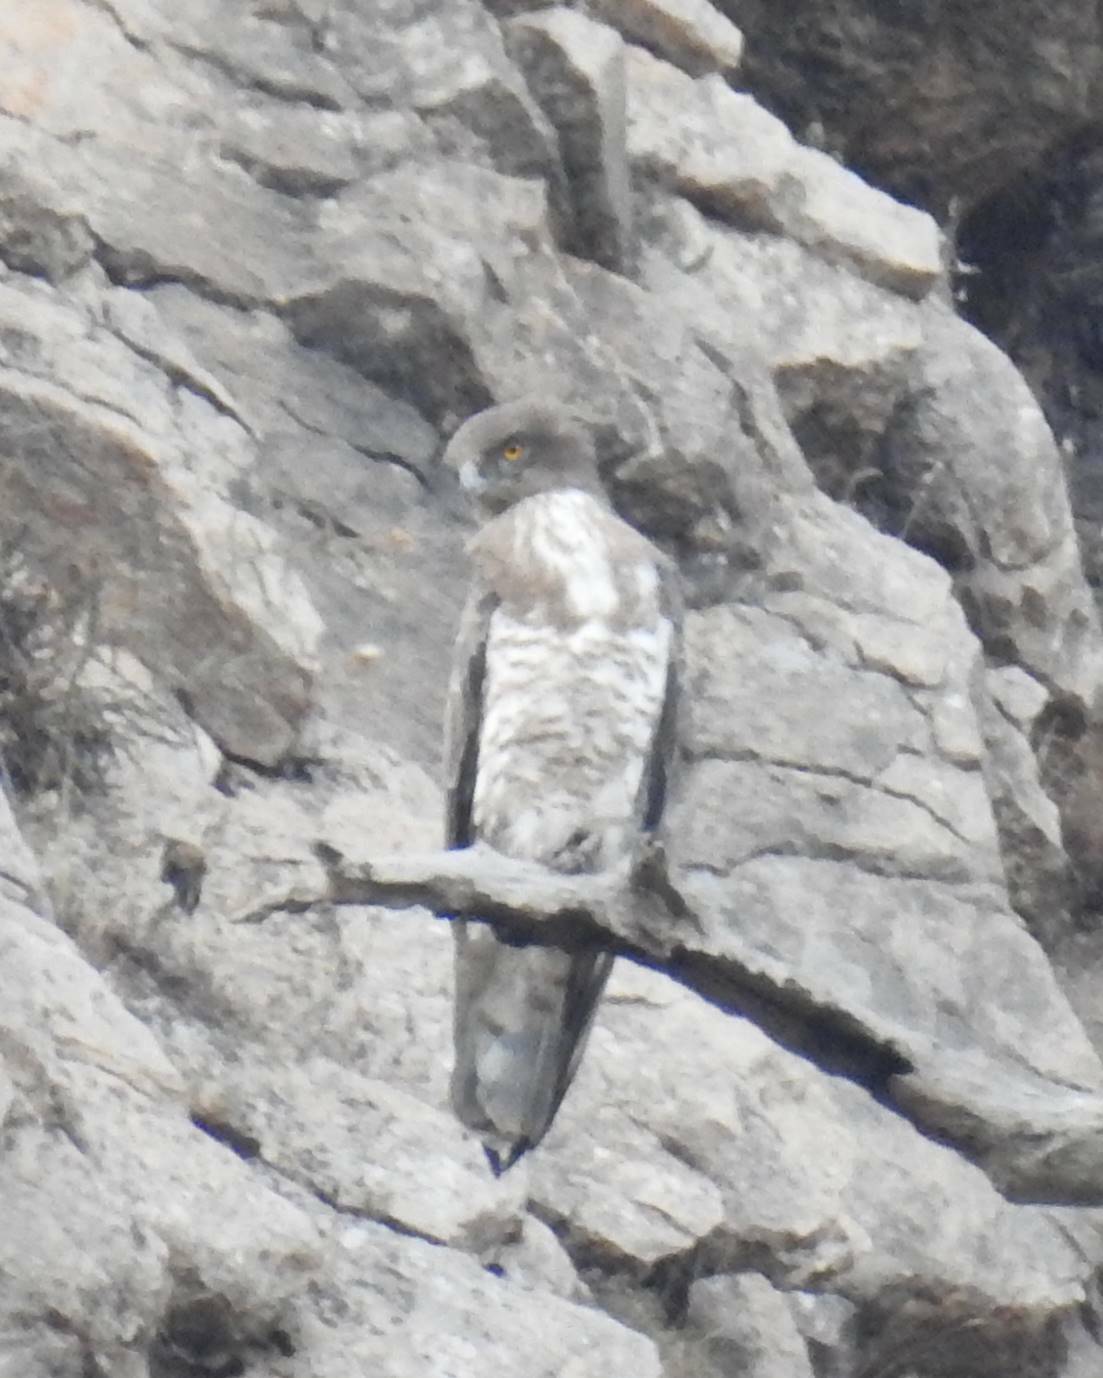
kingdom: Animalia
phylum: Chordata
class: Aves
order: Accipitriformes
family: Accipitridae
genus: Circaetus
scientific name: Circaetus gallicus
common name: Short-toed snake eagle
